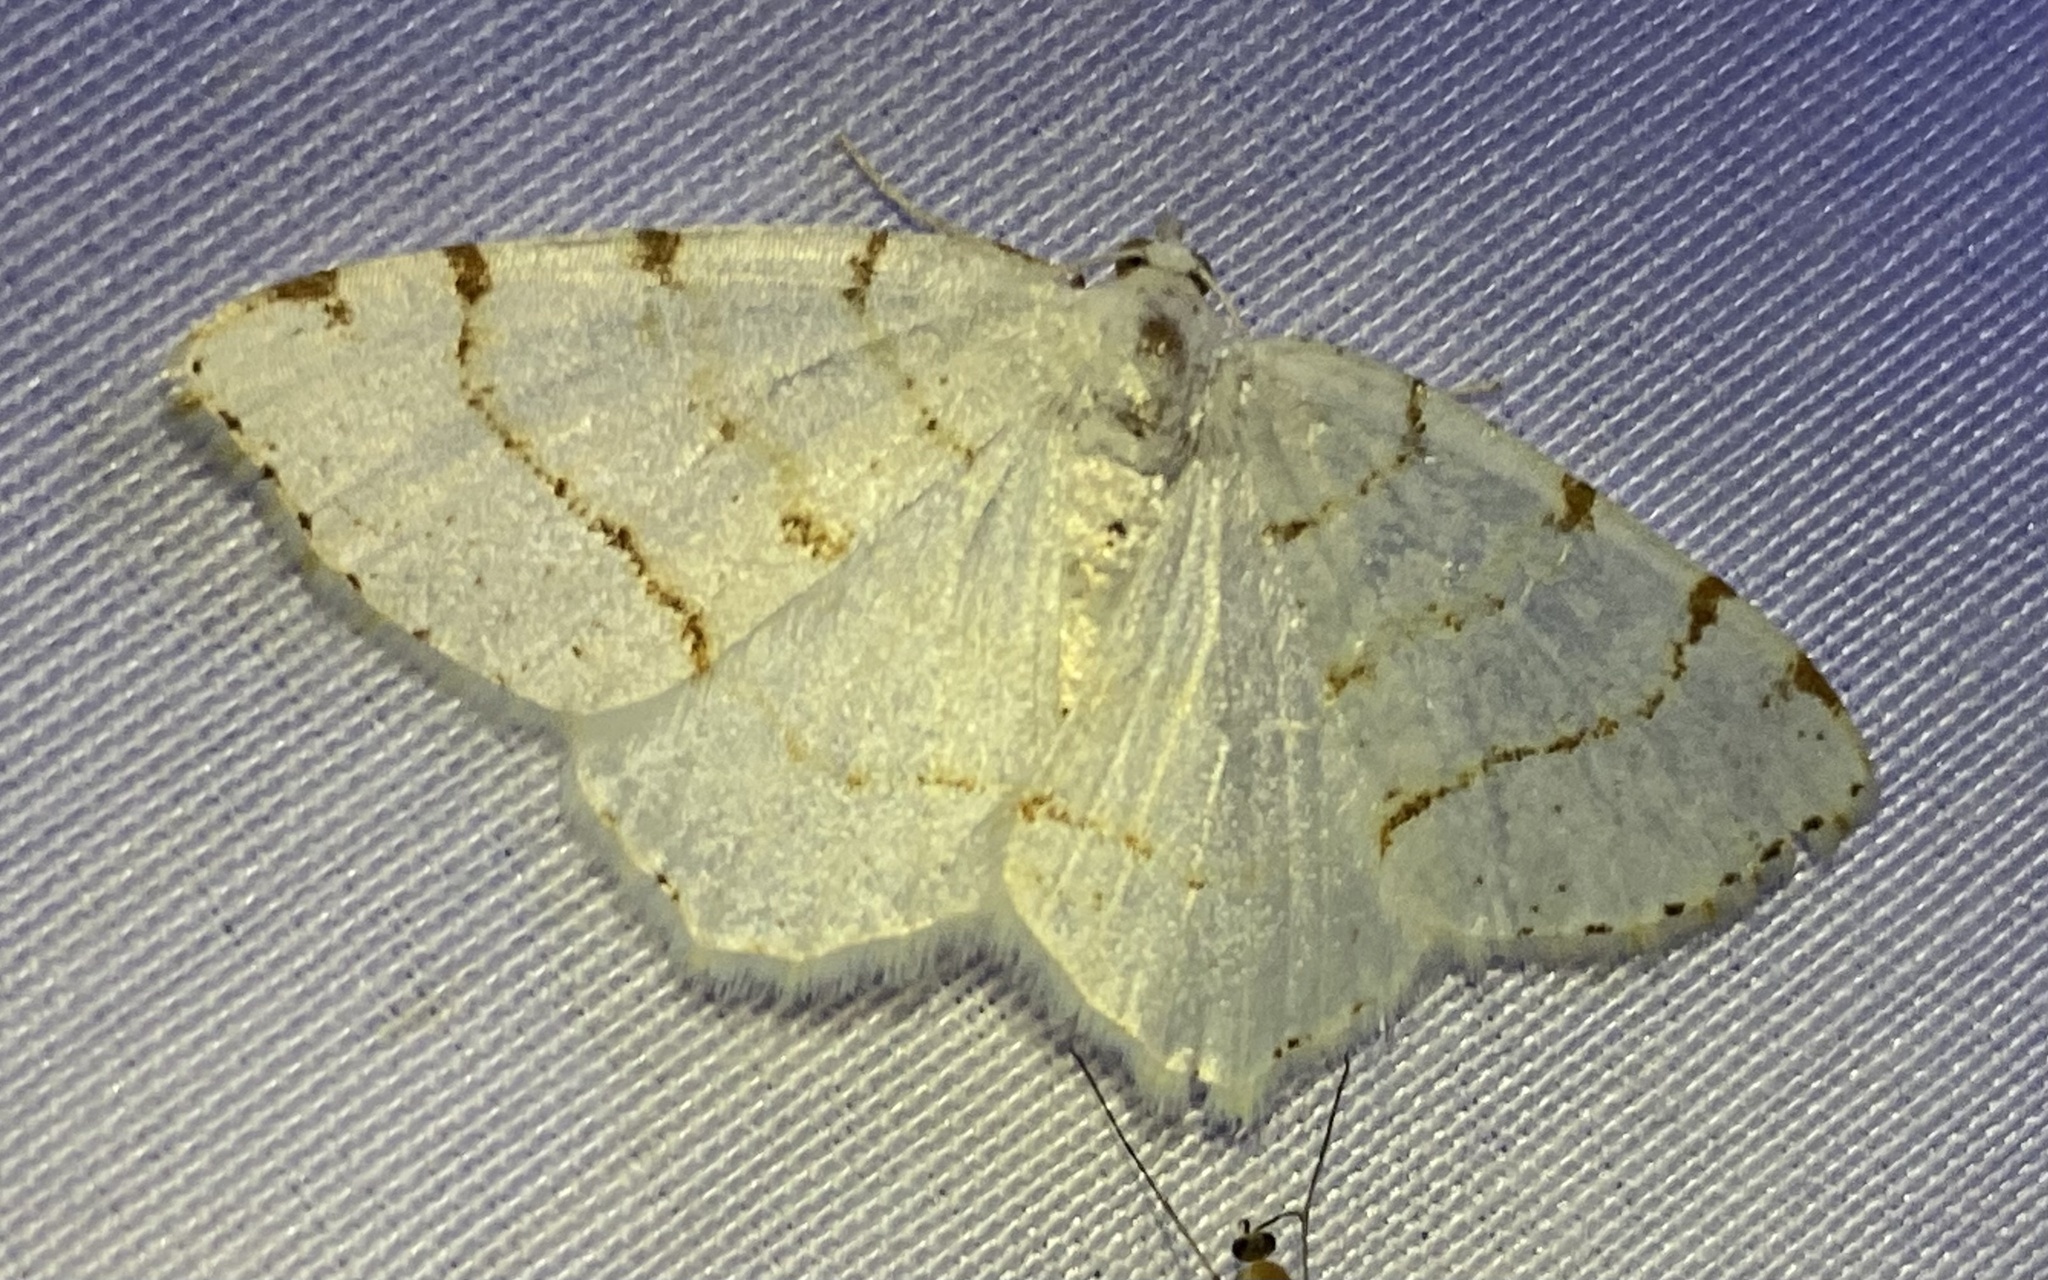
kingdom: Animalia
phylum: Arthropoda
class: Insecta
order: Lepidoptera
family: Geometridae
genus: Macaria
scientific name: Macaria pustularia
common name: Lesser maple spanworm moth
